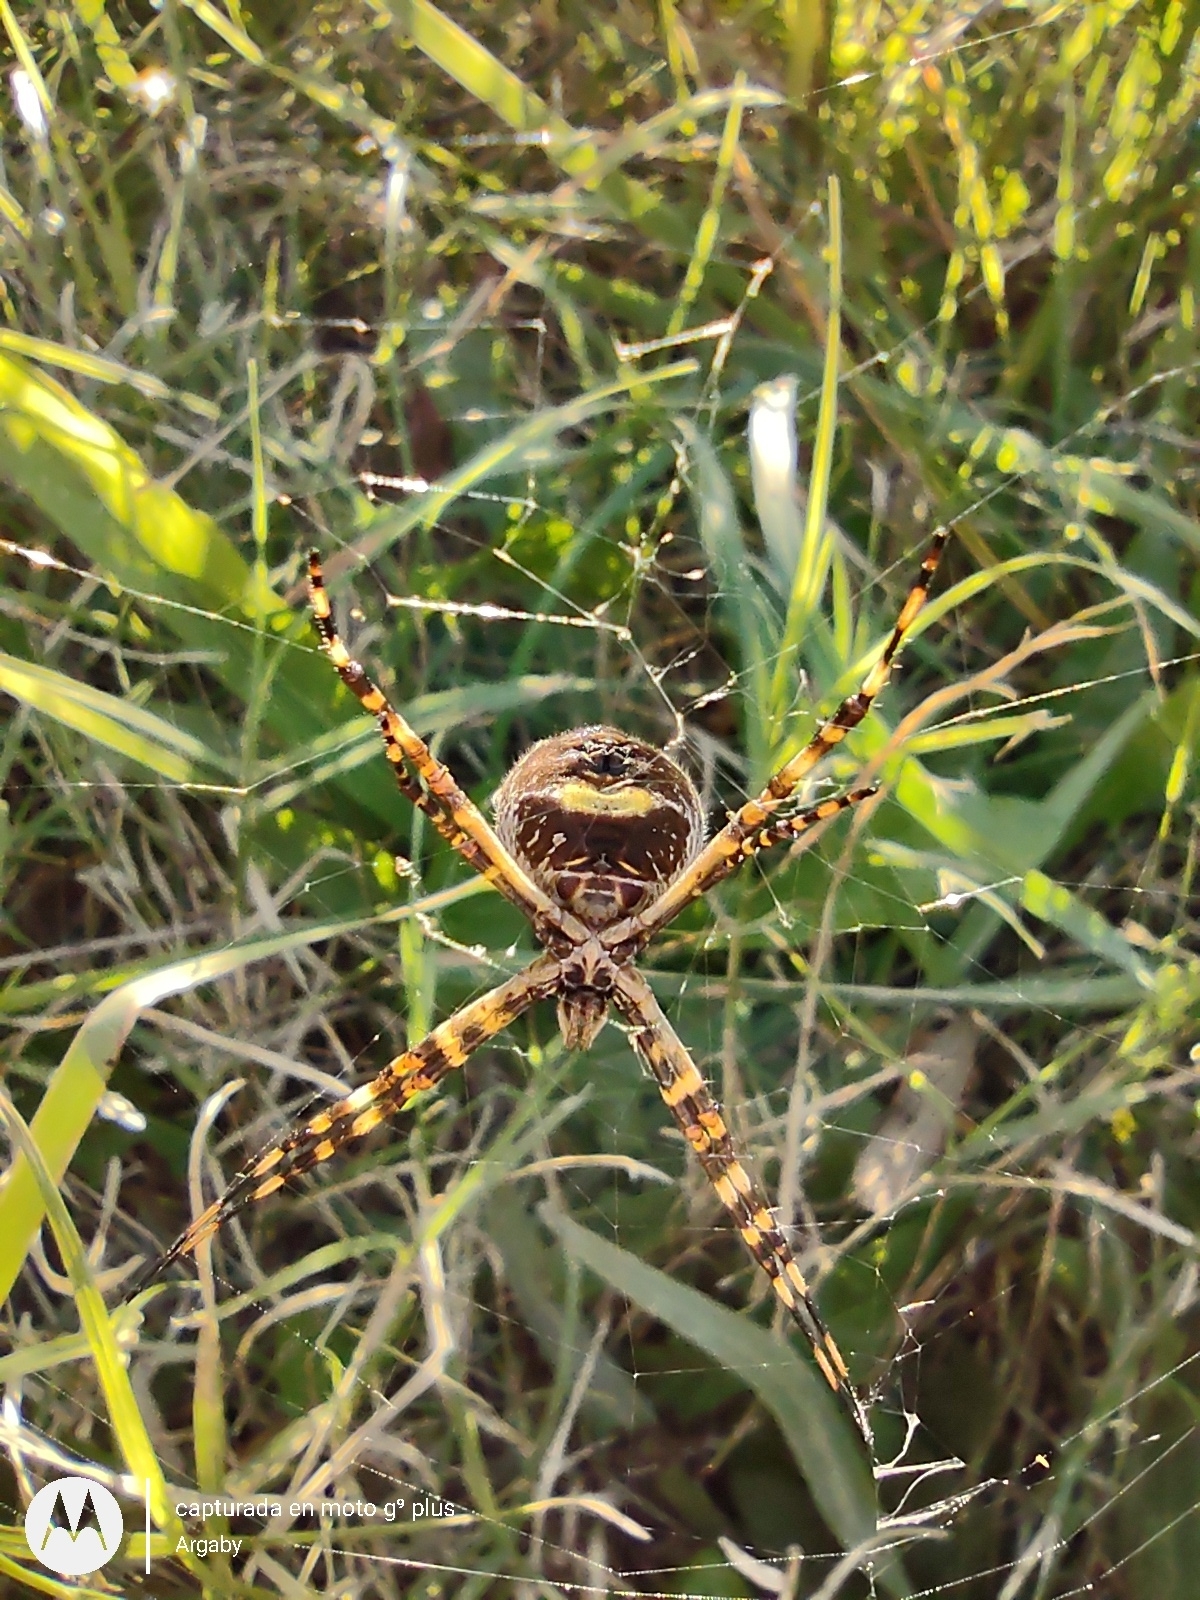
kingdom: Animalia
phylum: Arthropoda
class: Arachnida
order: Araneae
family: Araneidae
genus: Argiope
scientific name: Argiope argentata
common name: Orb weavers
